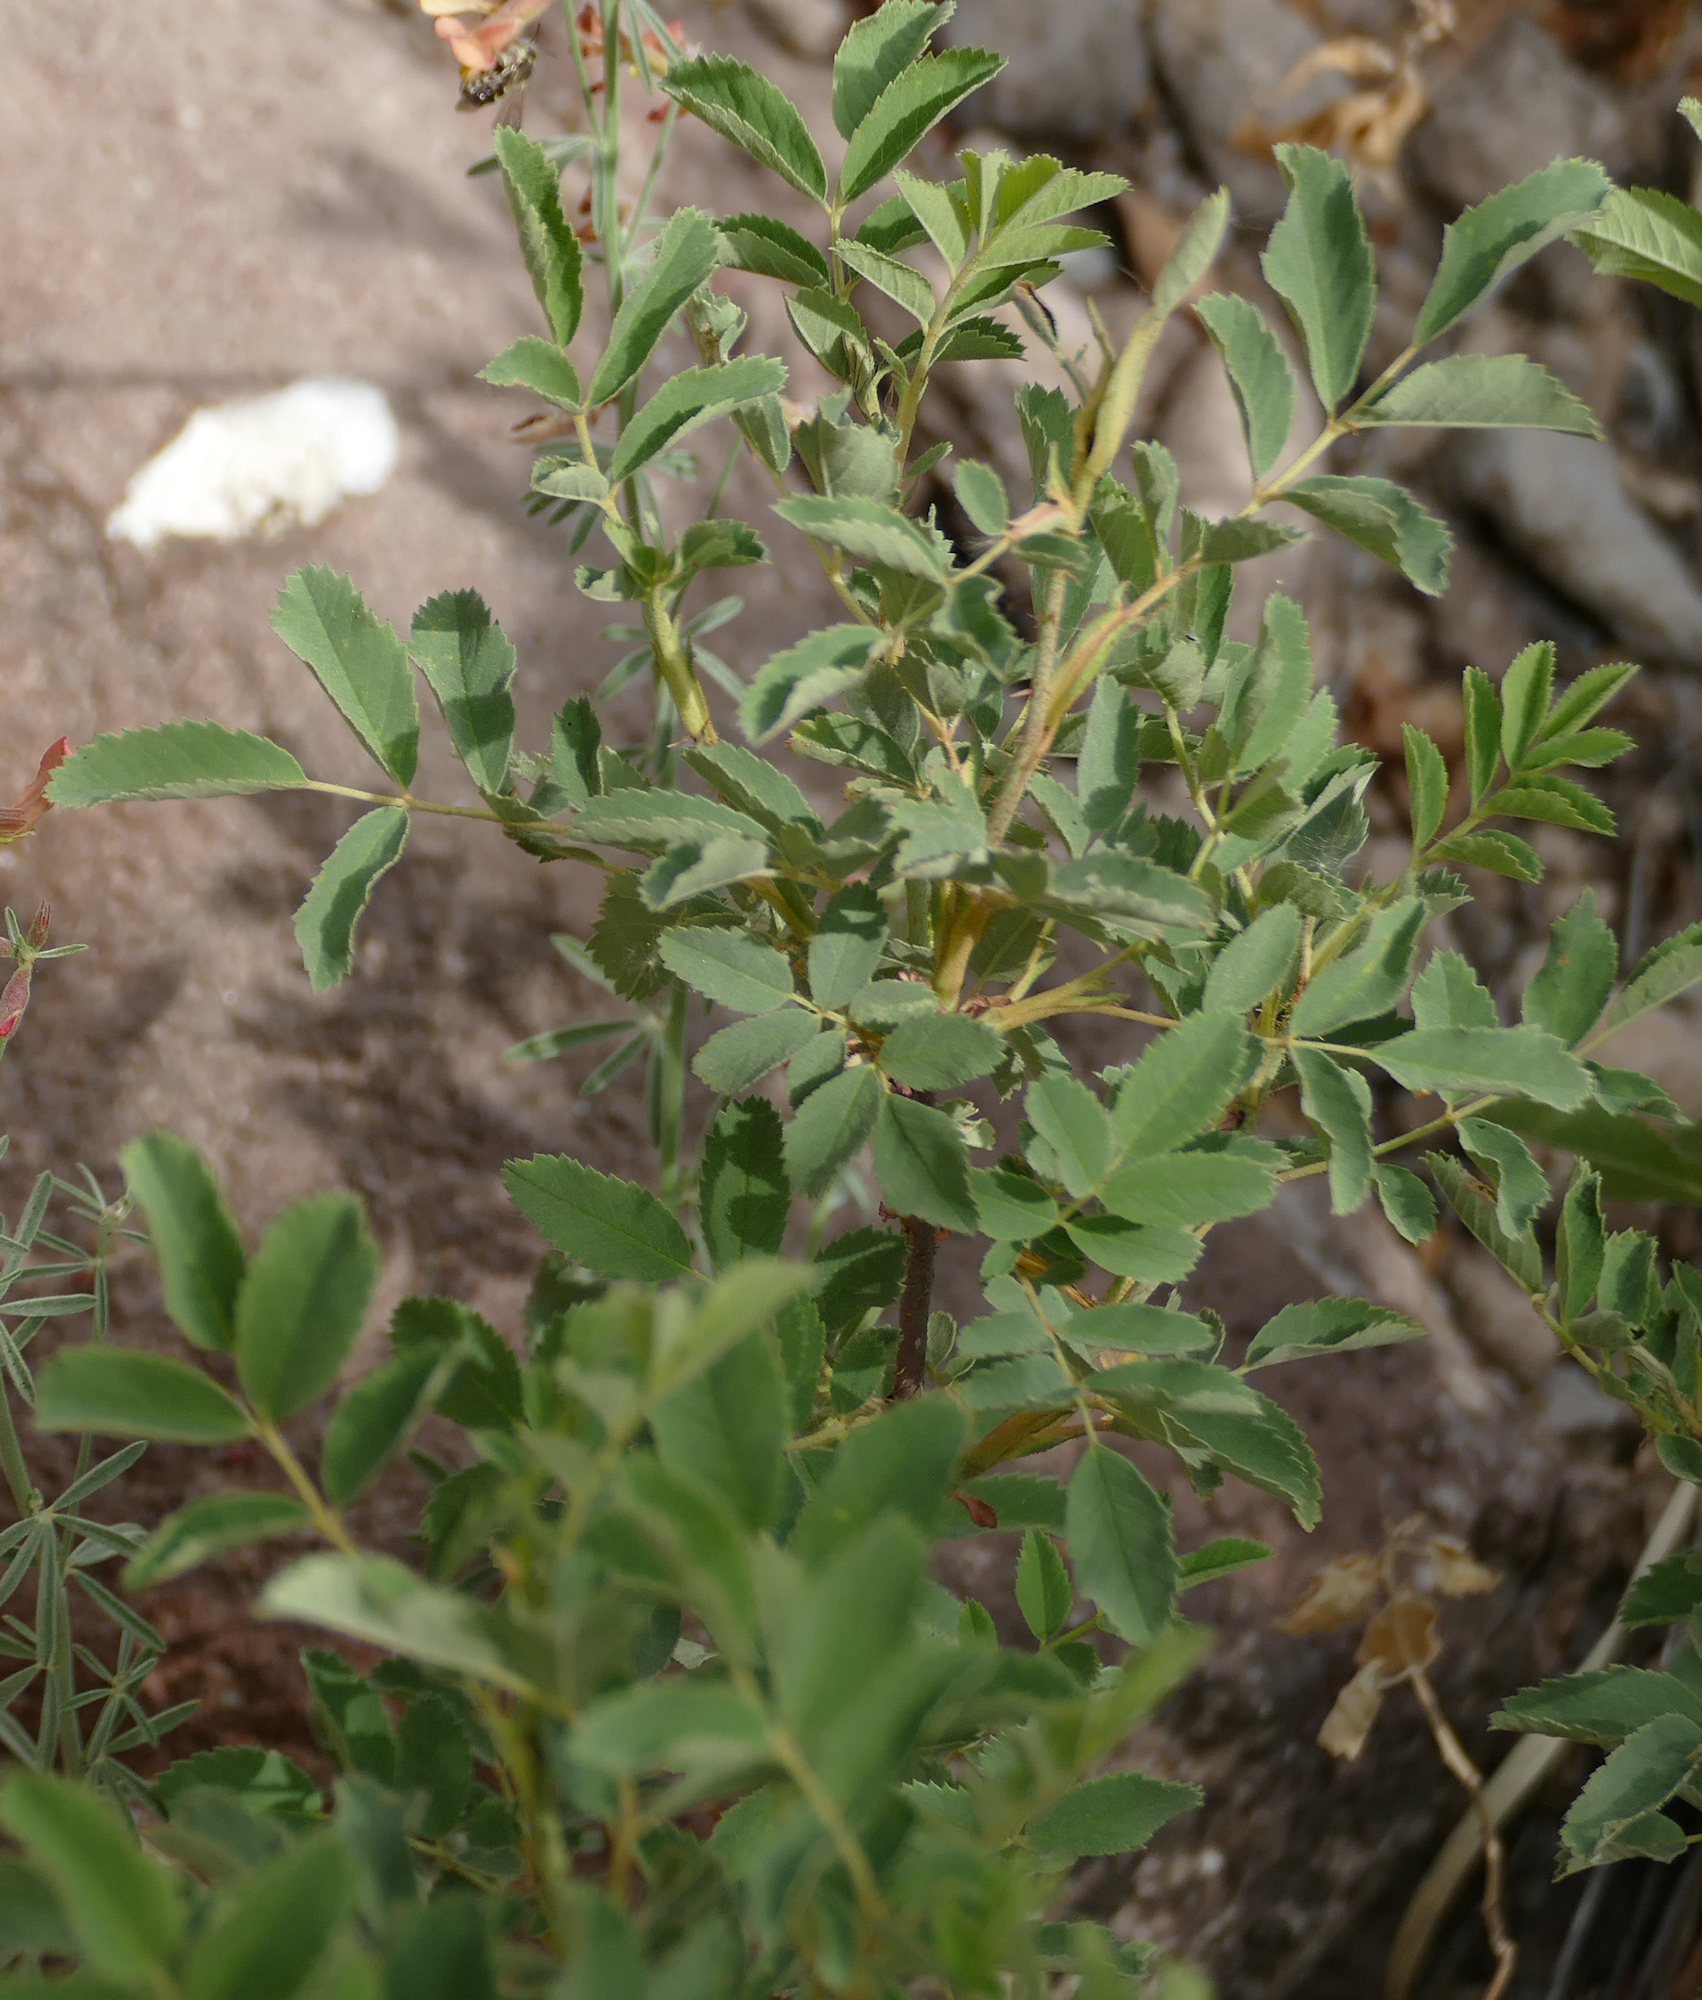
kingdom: Plantae
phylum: Tracheophyta
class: Magnoliopsida
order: Rosales
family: Rosaceae
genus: Rosa
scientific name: Rosa woodsii
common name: Woods's rose
